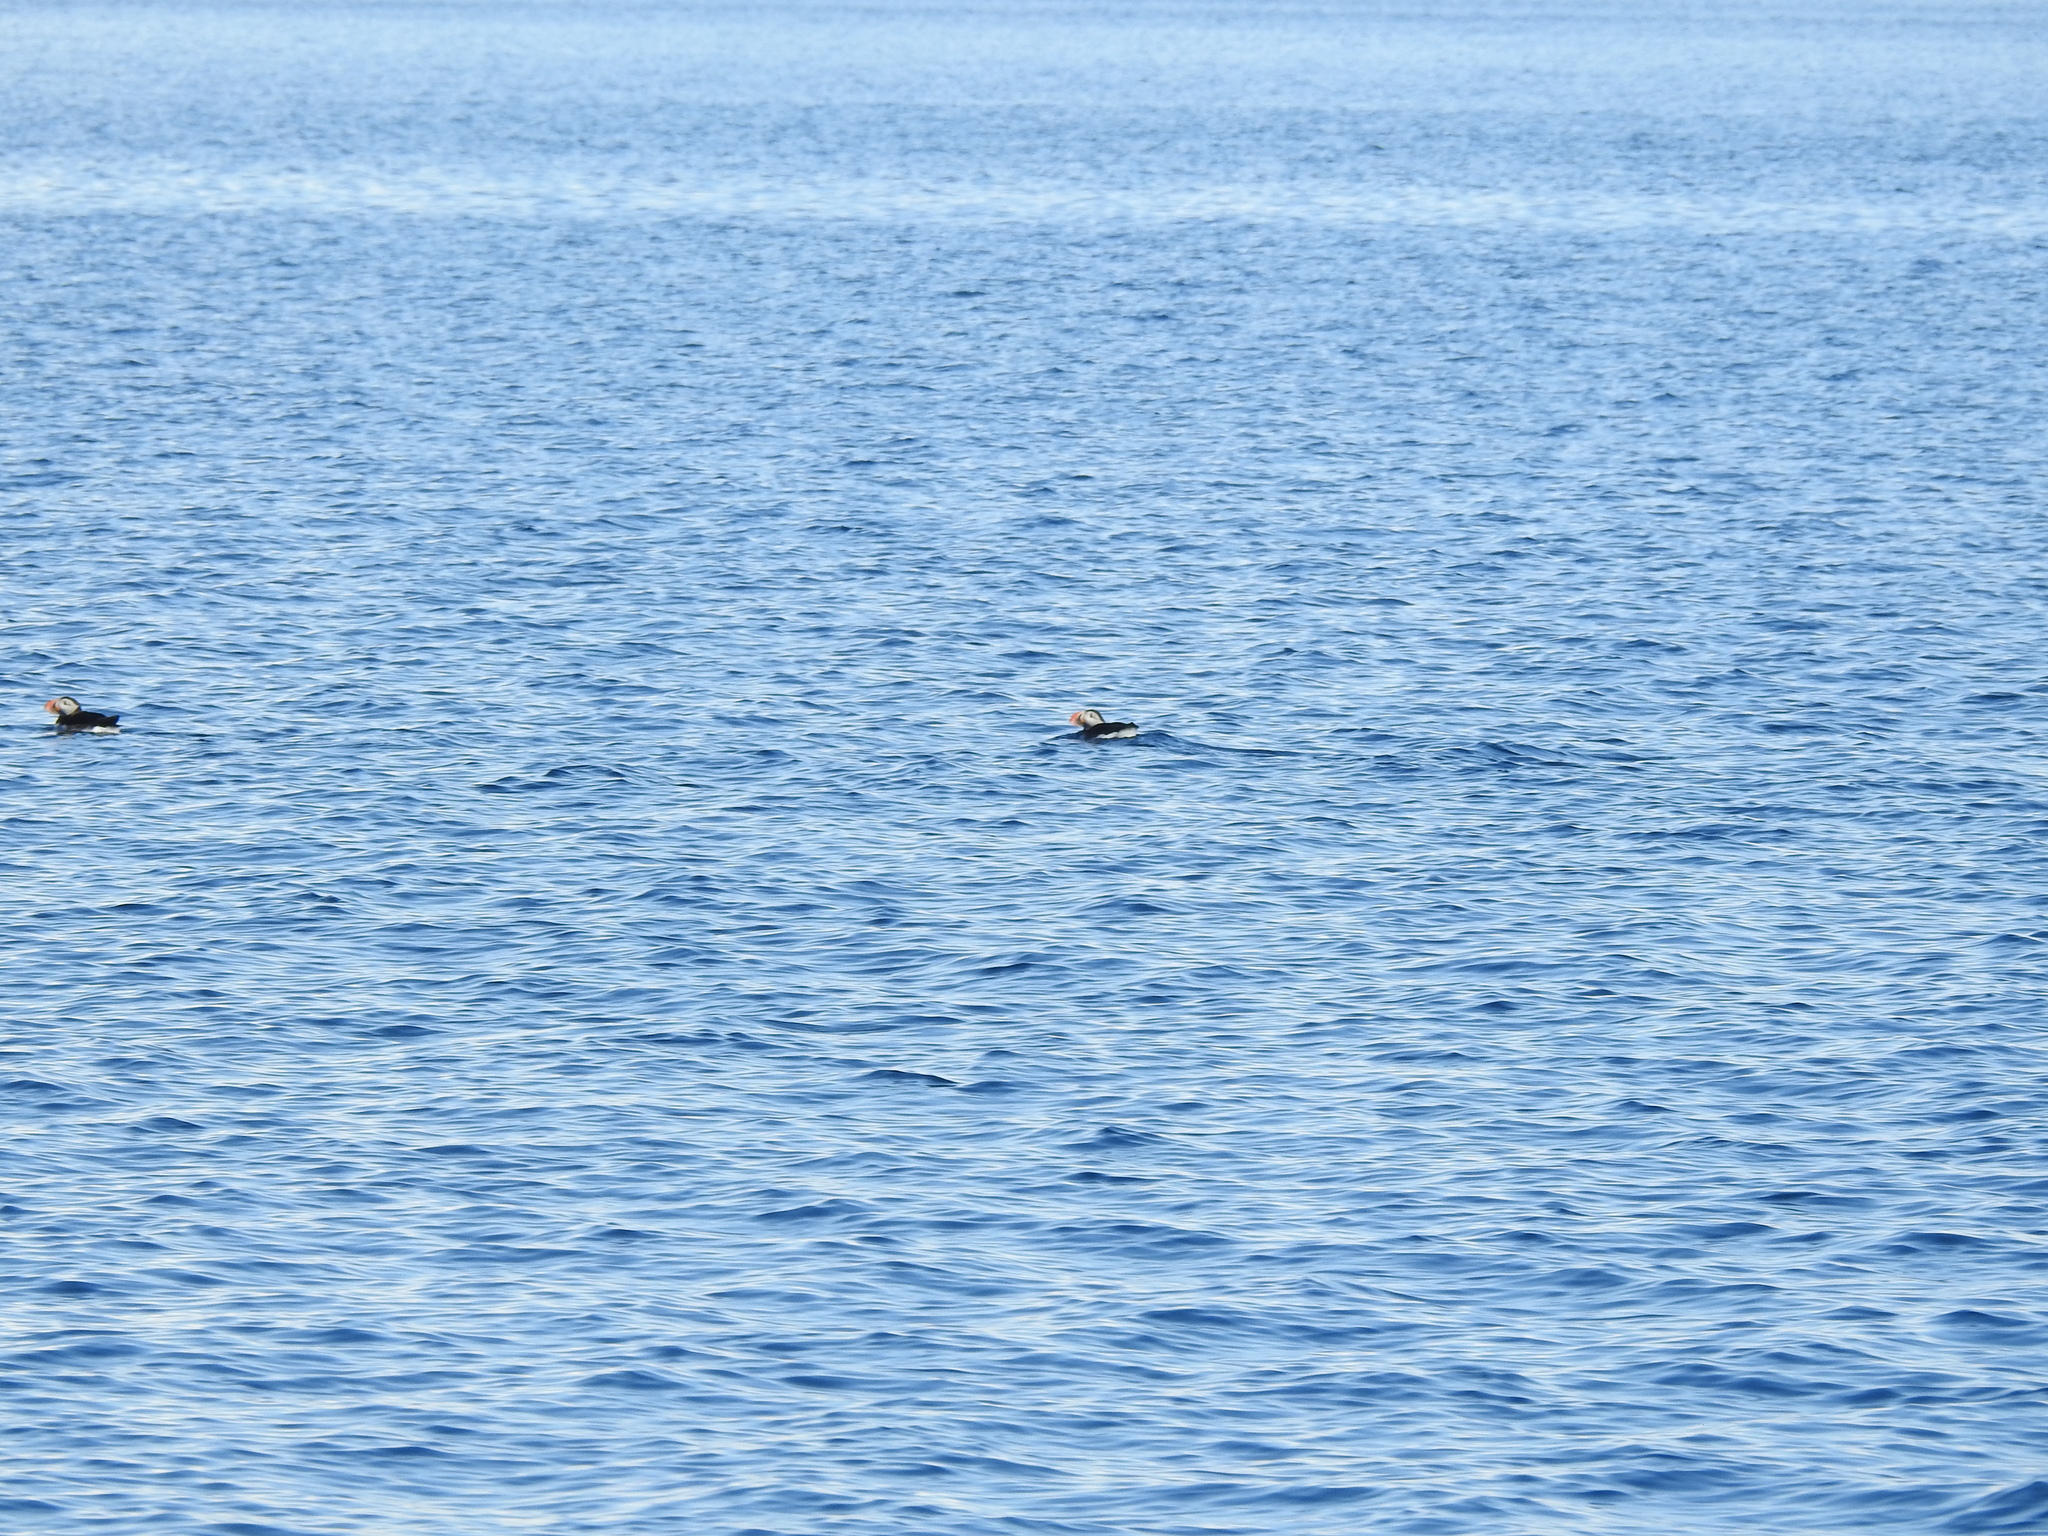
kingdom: Animalia
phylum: Chordata
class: Aves
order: Charadriiformes
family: Alcidae
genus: Fratercula
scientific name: Fratercula arctica
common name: Atlantic puffin
